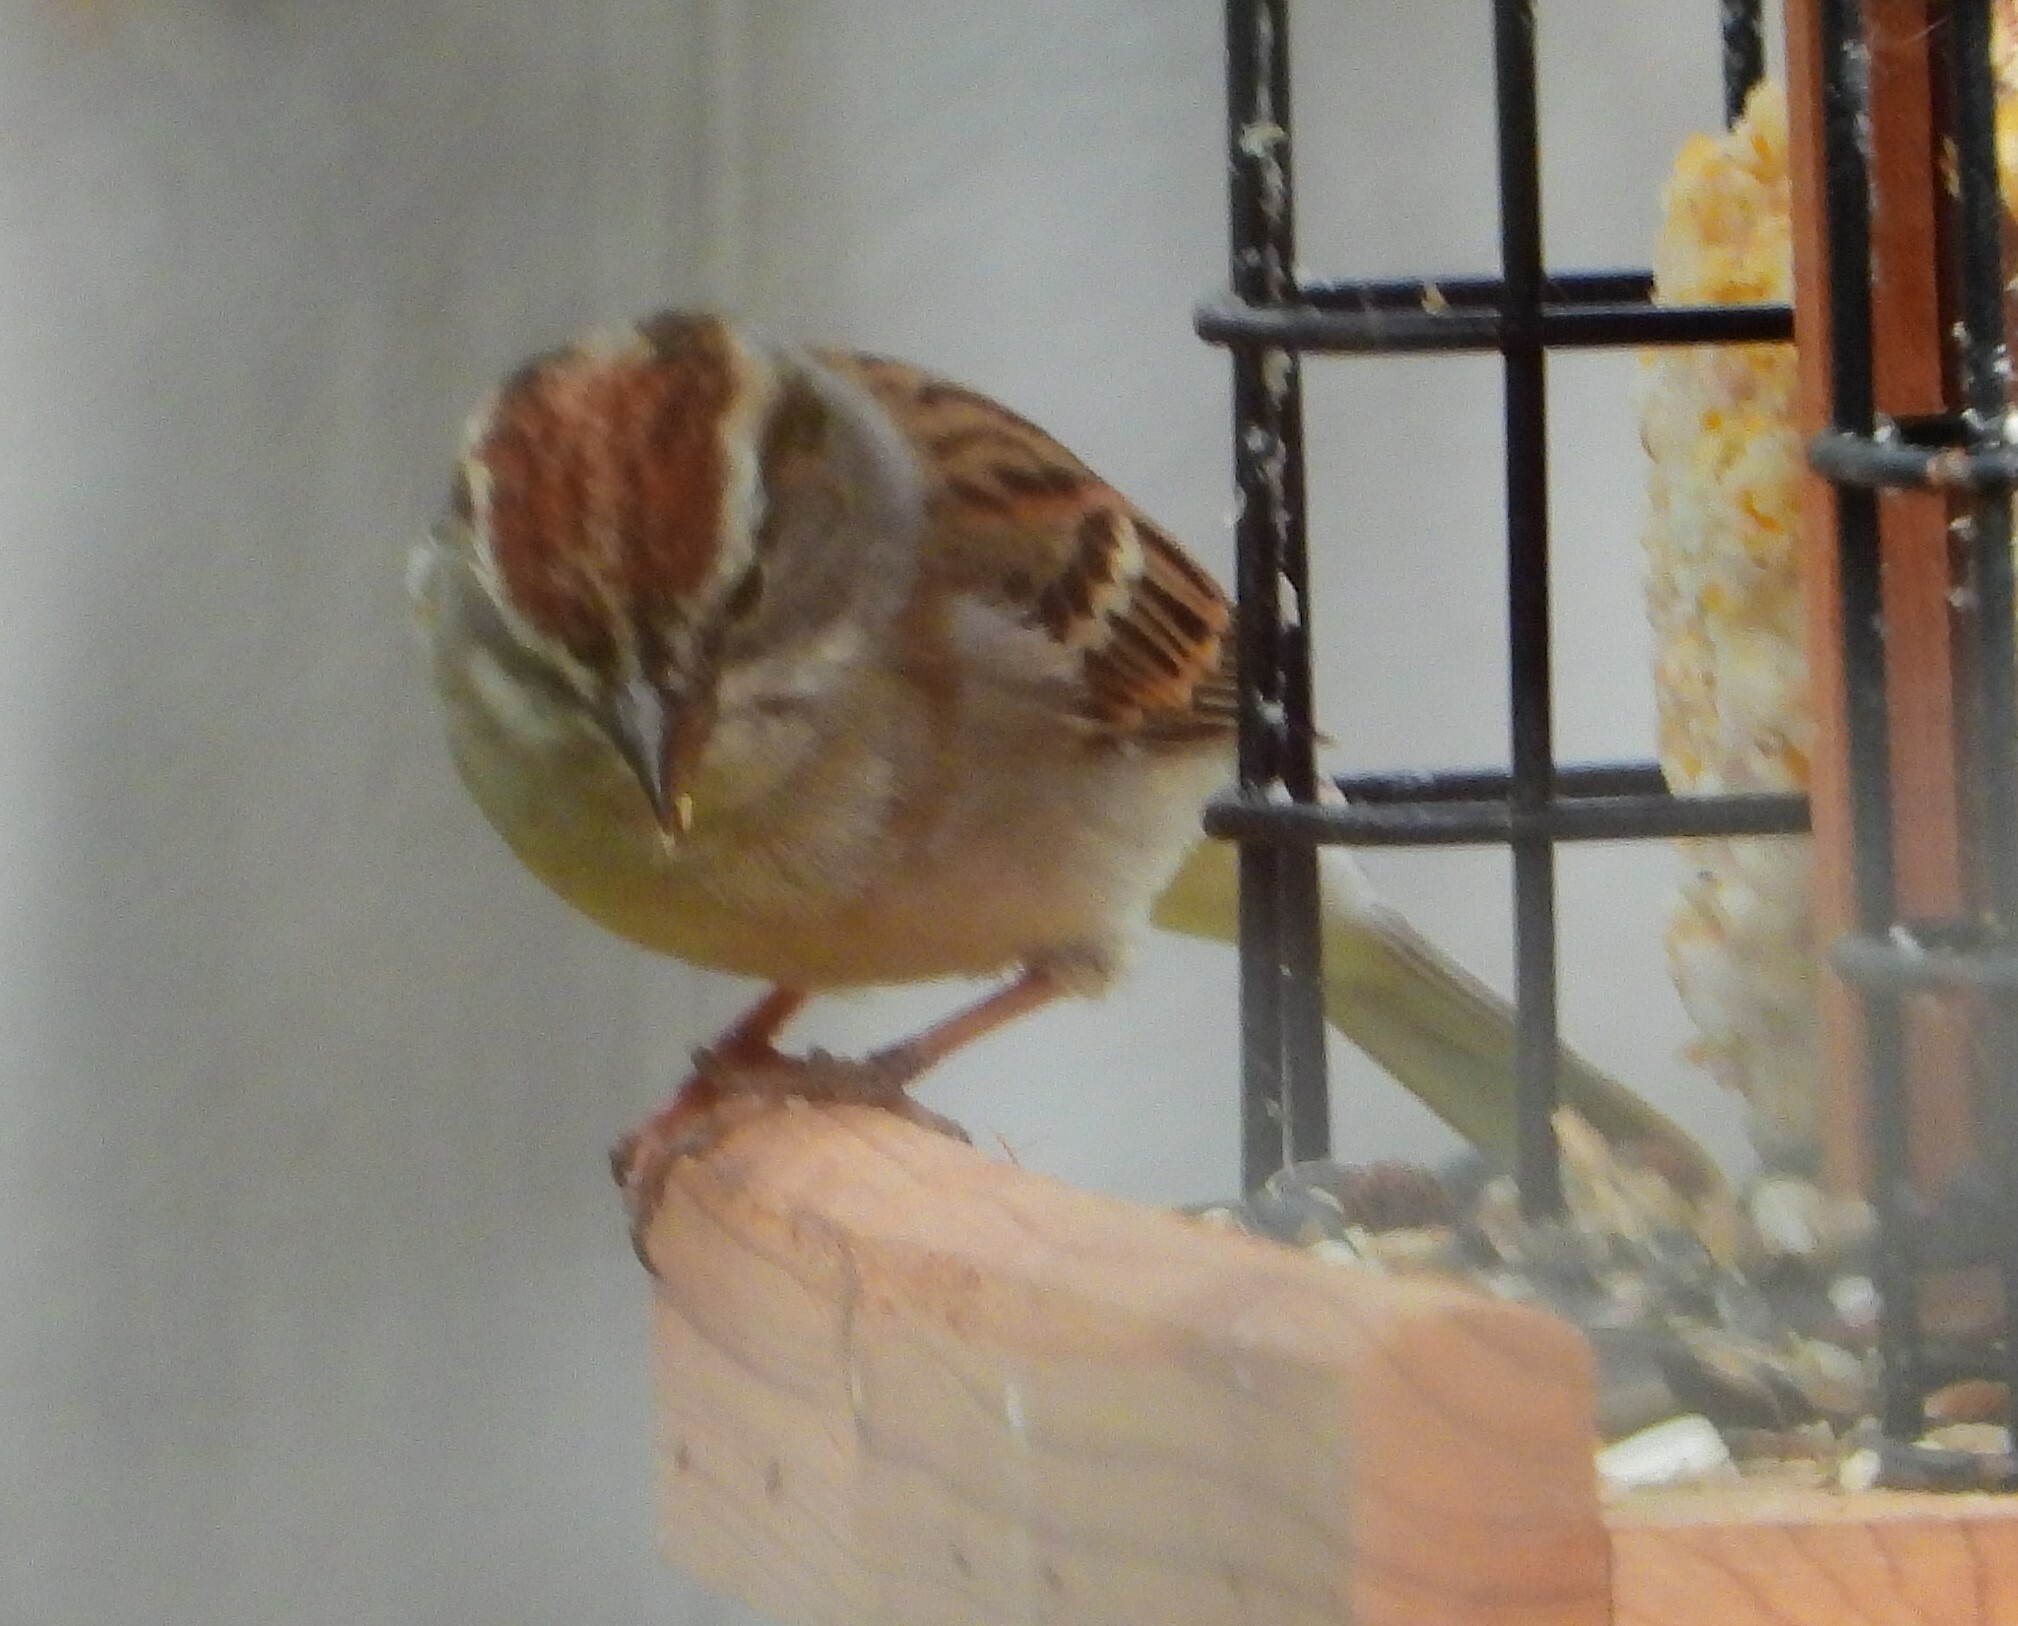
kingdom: Animalia
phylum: Chordata
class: Aves
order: Passeriformes
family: Passerellidae
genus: Spizella
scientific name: Spizella passerina
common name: Chipping sparrow
